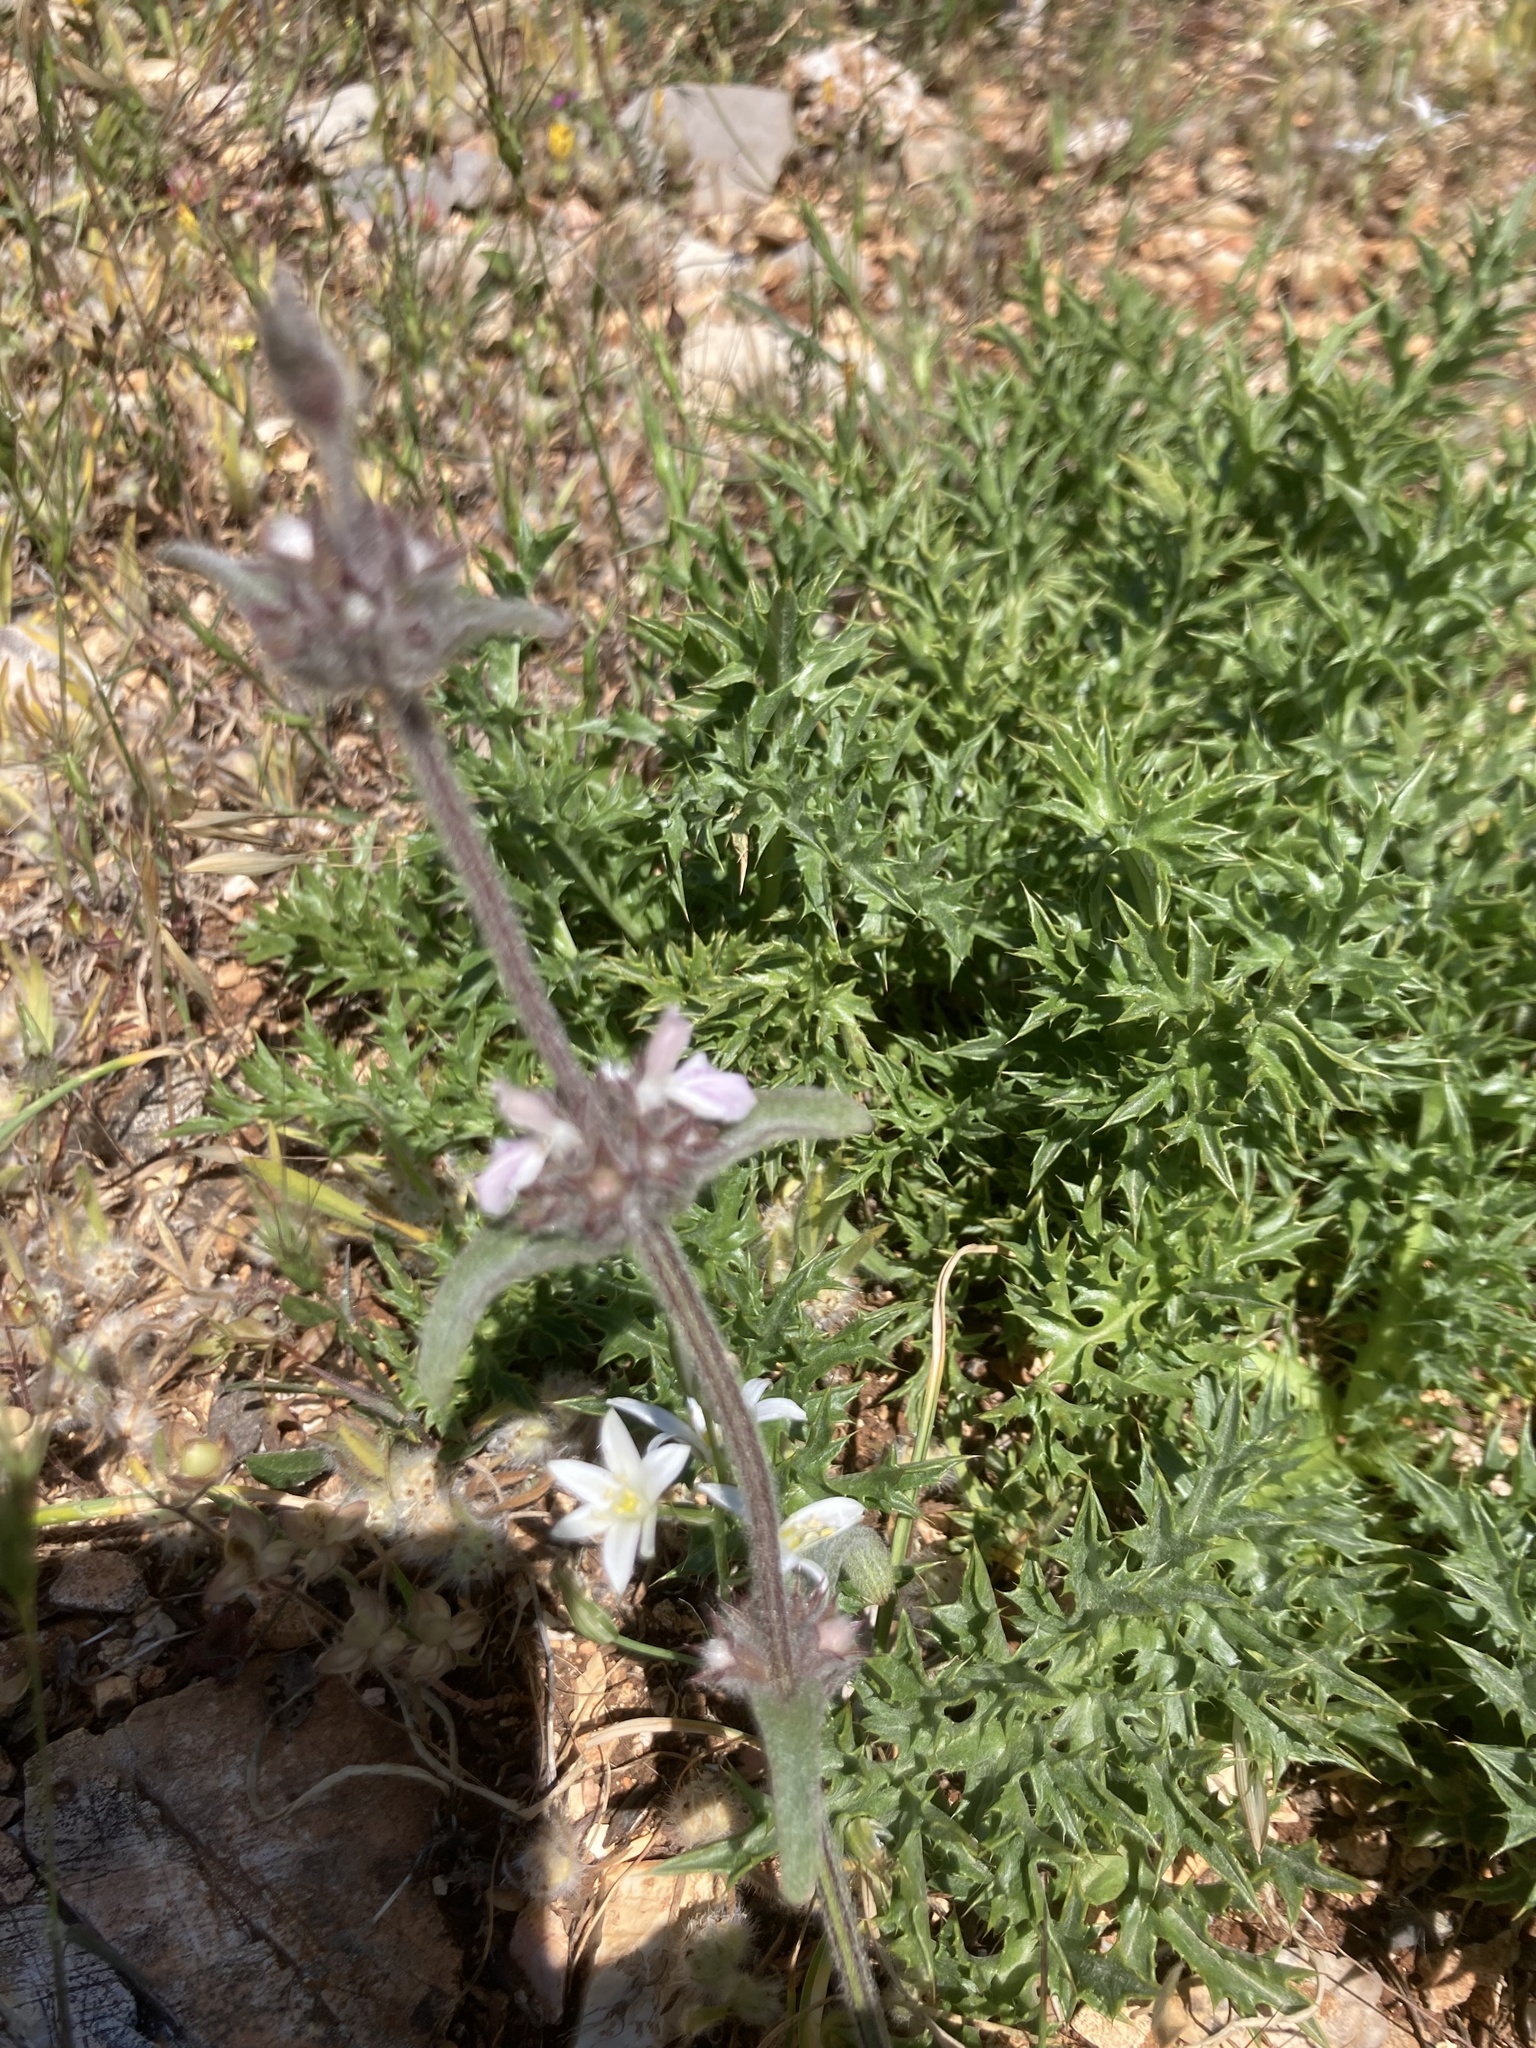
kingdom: Plantae
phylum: Tracheophyta
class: Magnoliopsida
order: Lamiales
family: Lamiaceae
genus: Stachys
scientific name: Stachys cretica
